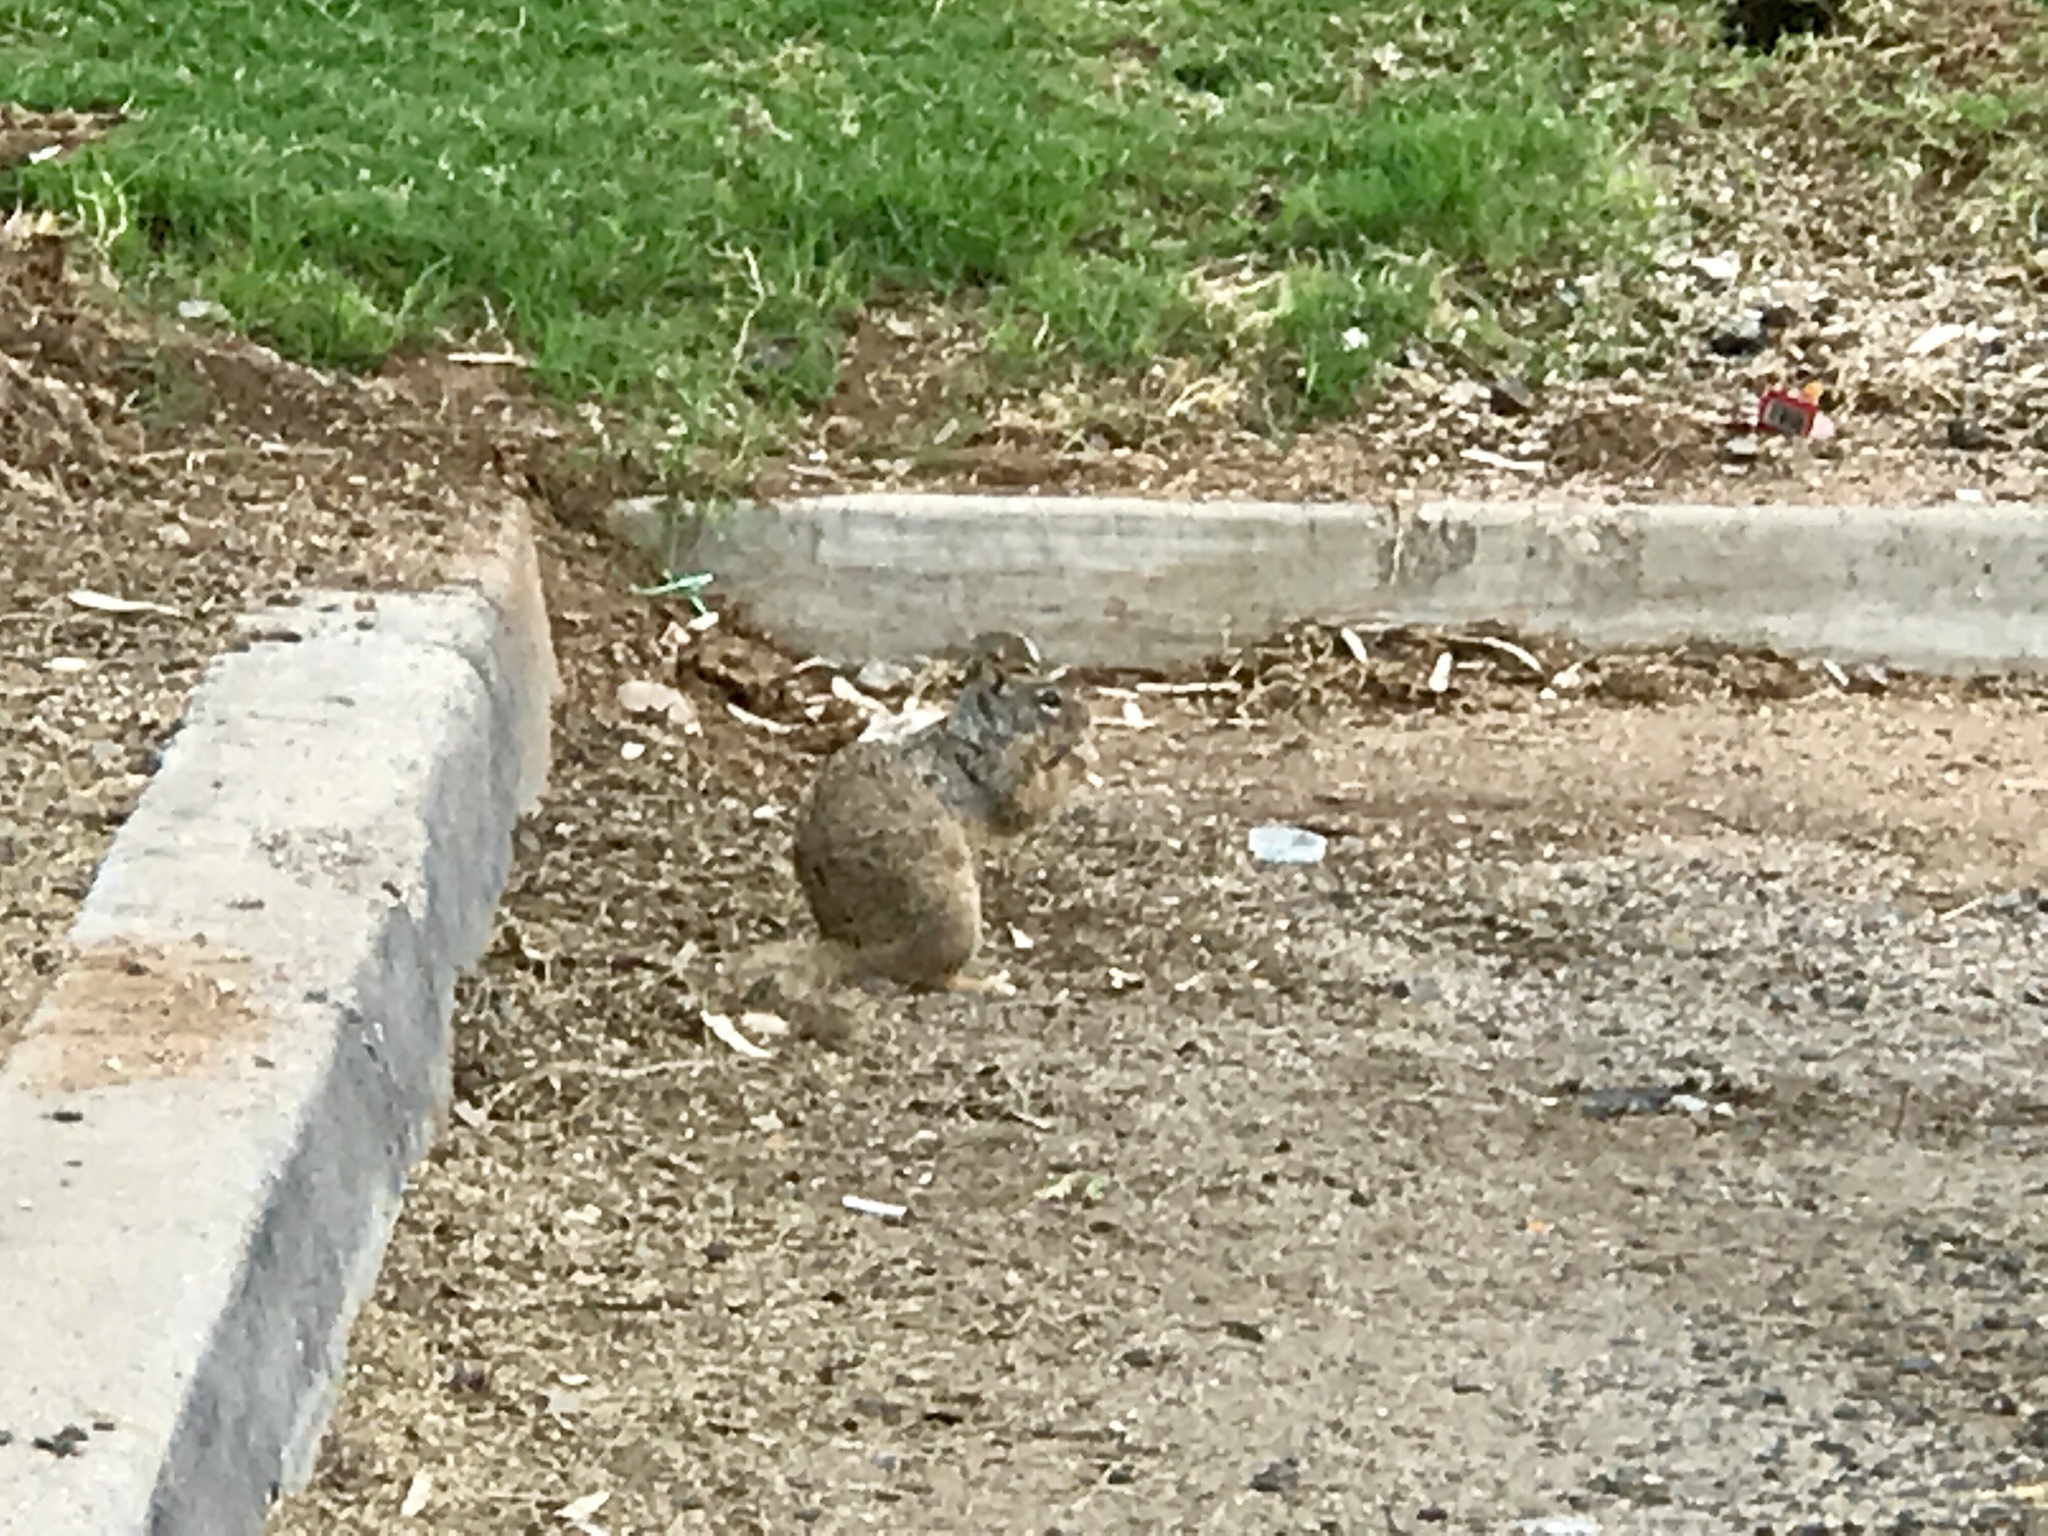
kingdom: Animalia
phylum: Chordata
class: Mammalia
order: Rodentia
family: Sciuridae
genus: Otospermophilus
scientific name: Otospermophilus variegatus
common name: Rock squirrel
